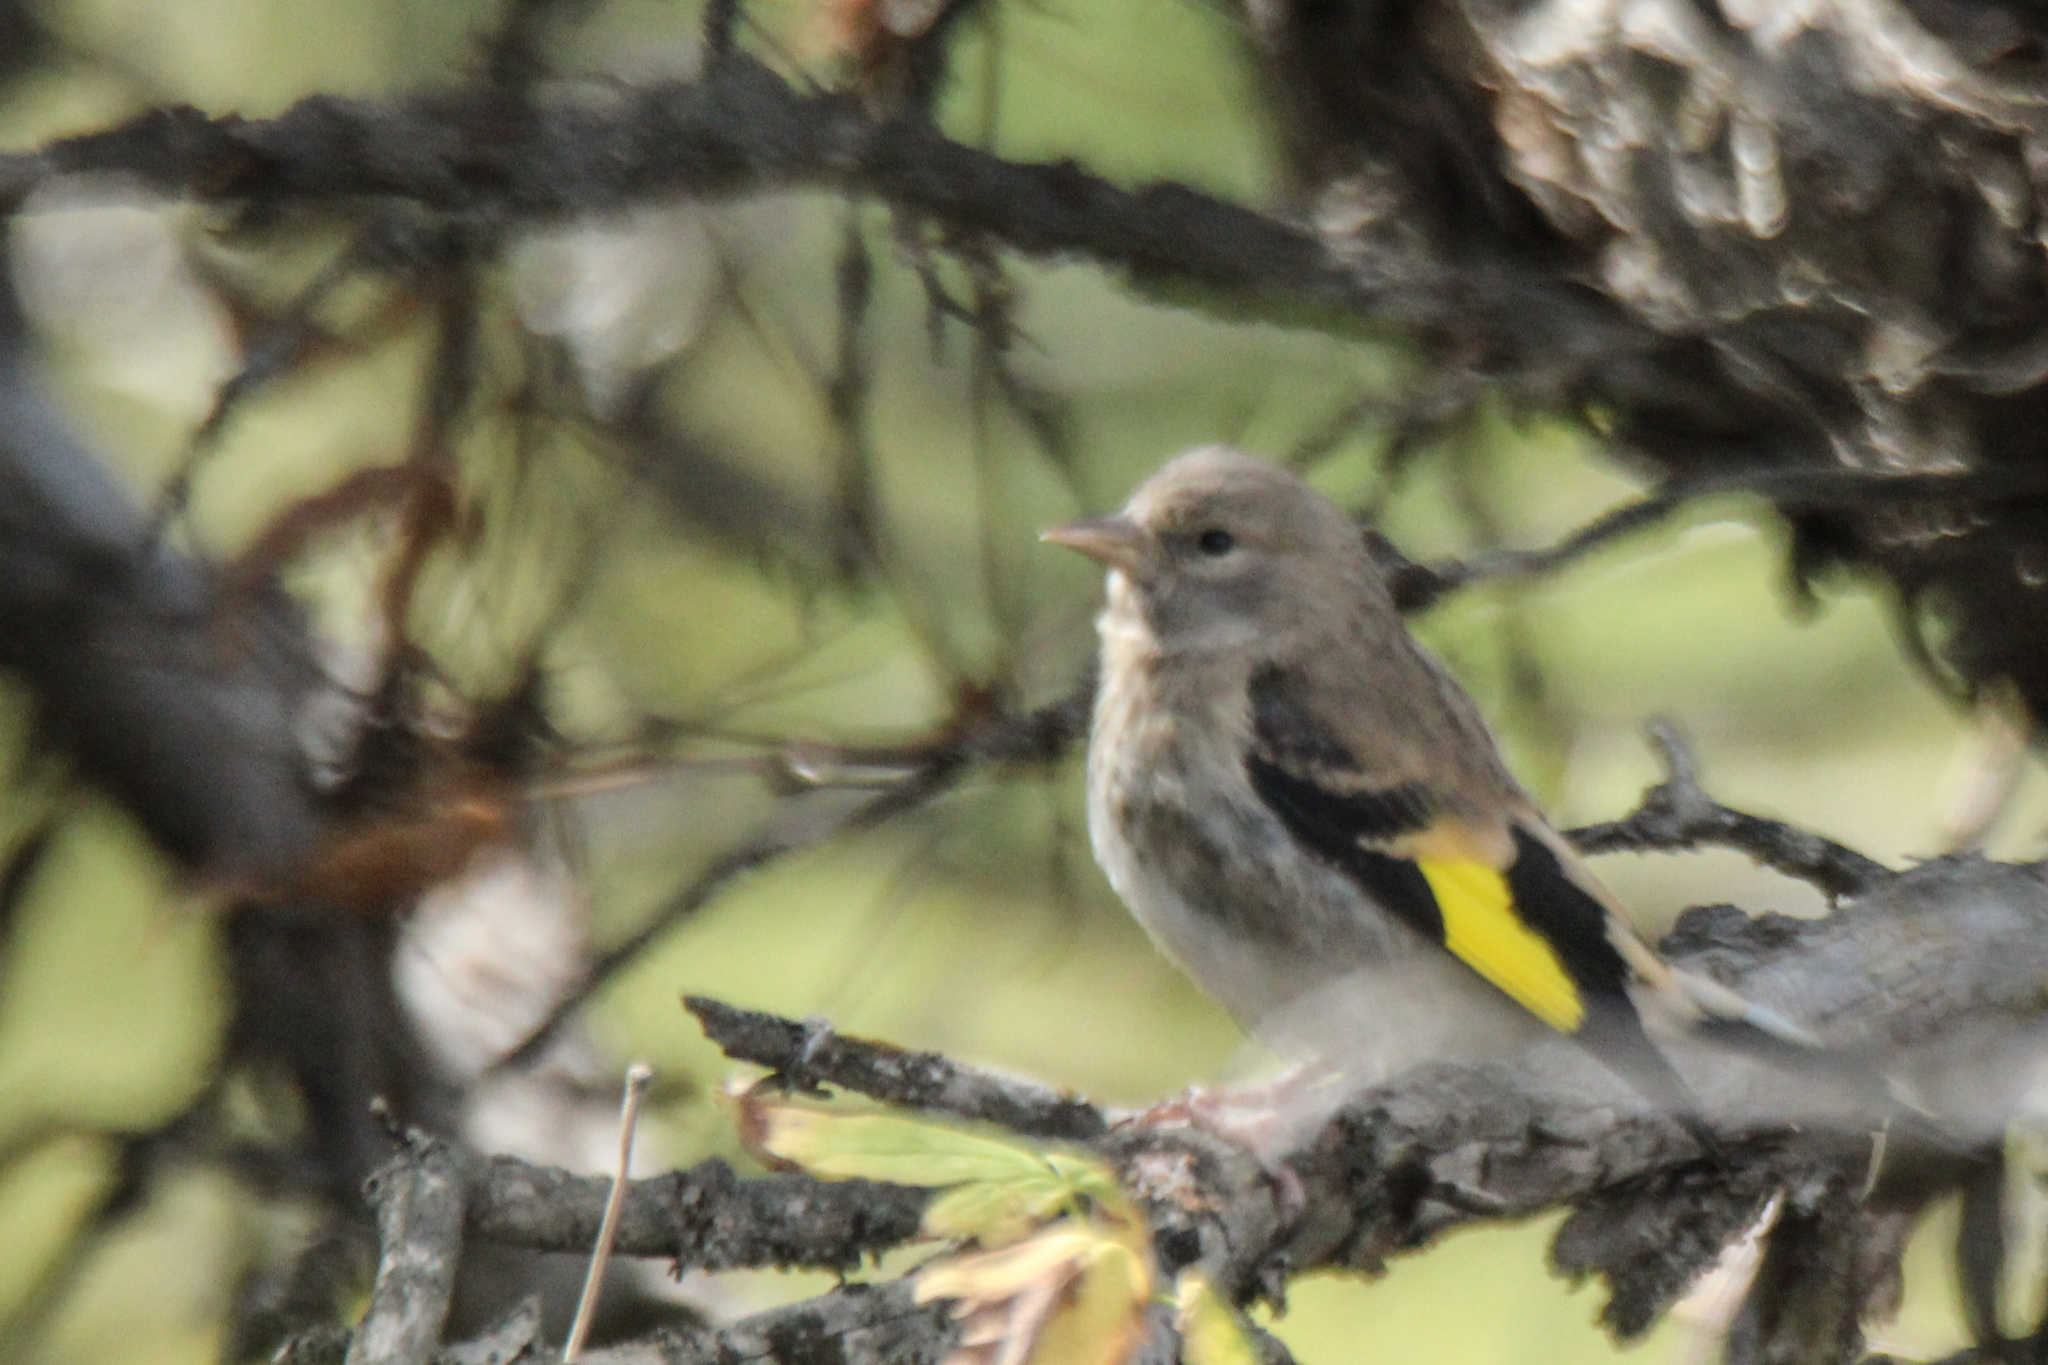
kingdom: Animalia
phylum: Chordata
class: Aves
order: Passeriformes
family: Fringillidae
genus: Carduelis
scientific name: Carduelis carduelis
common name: European goldfinch
